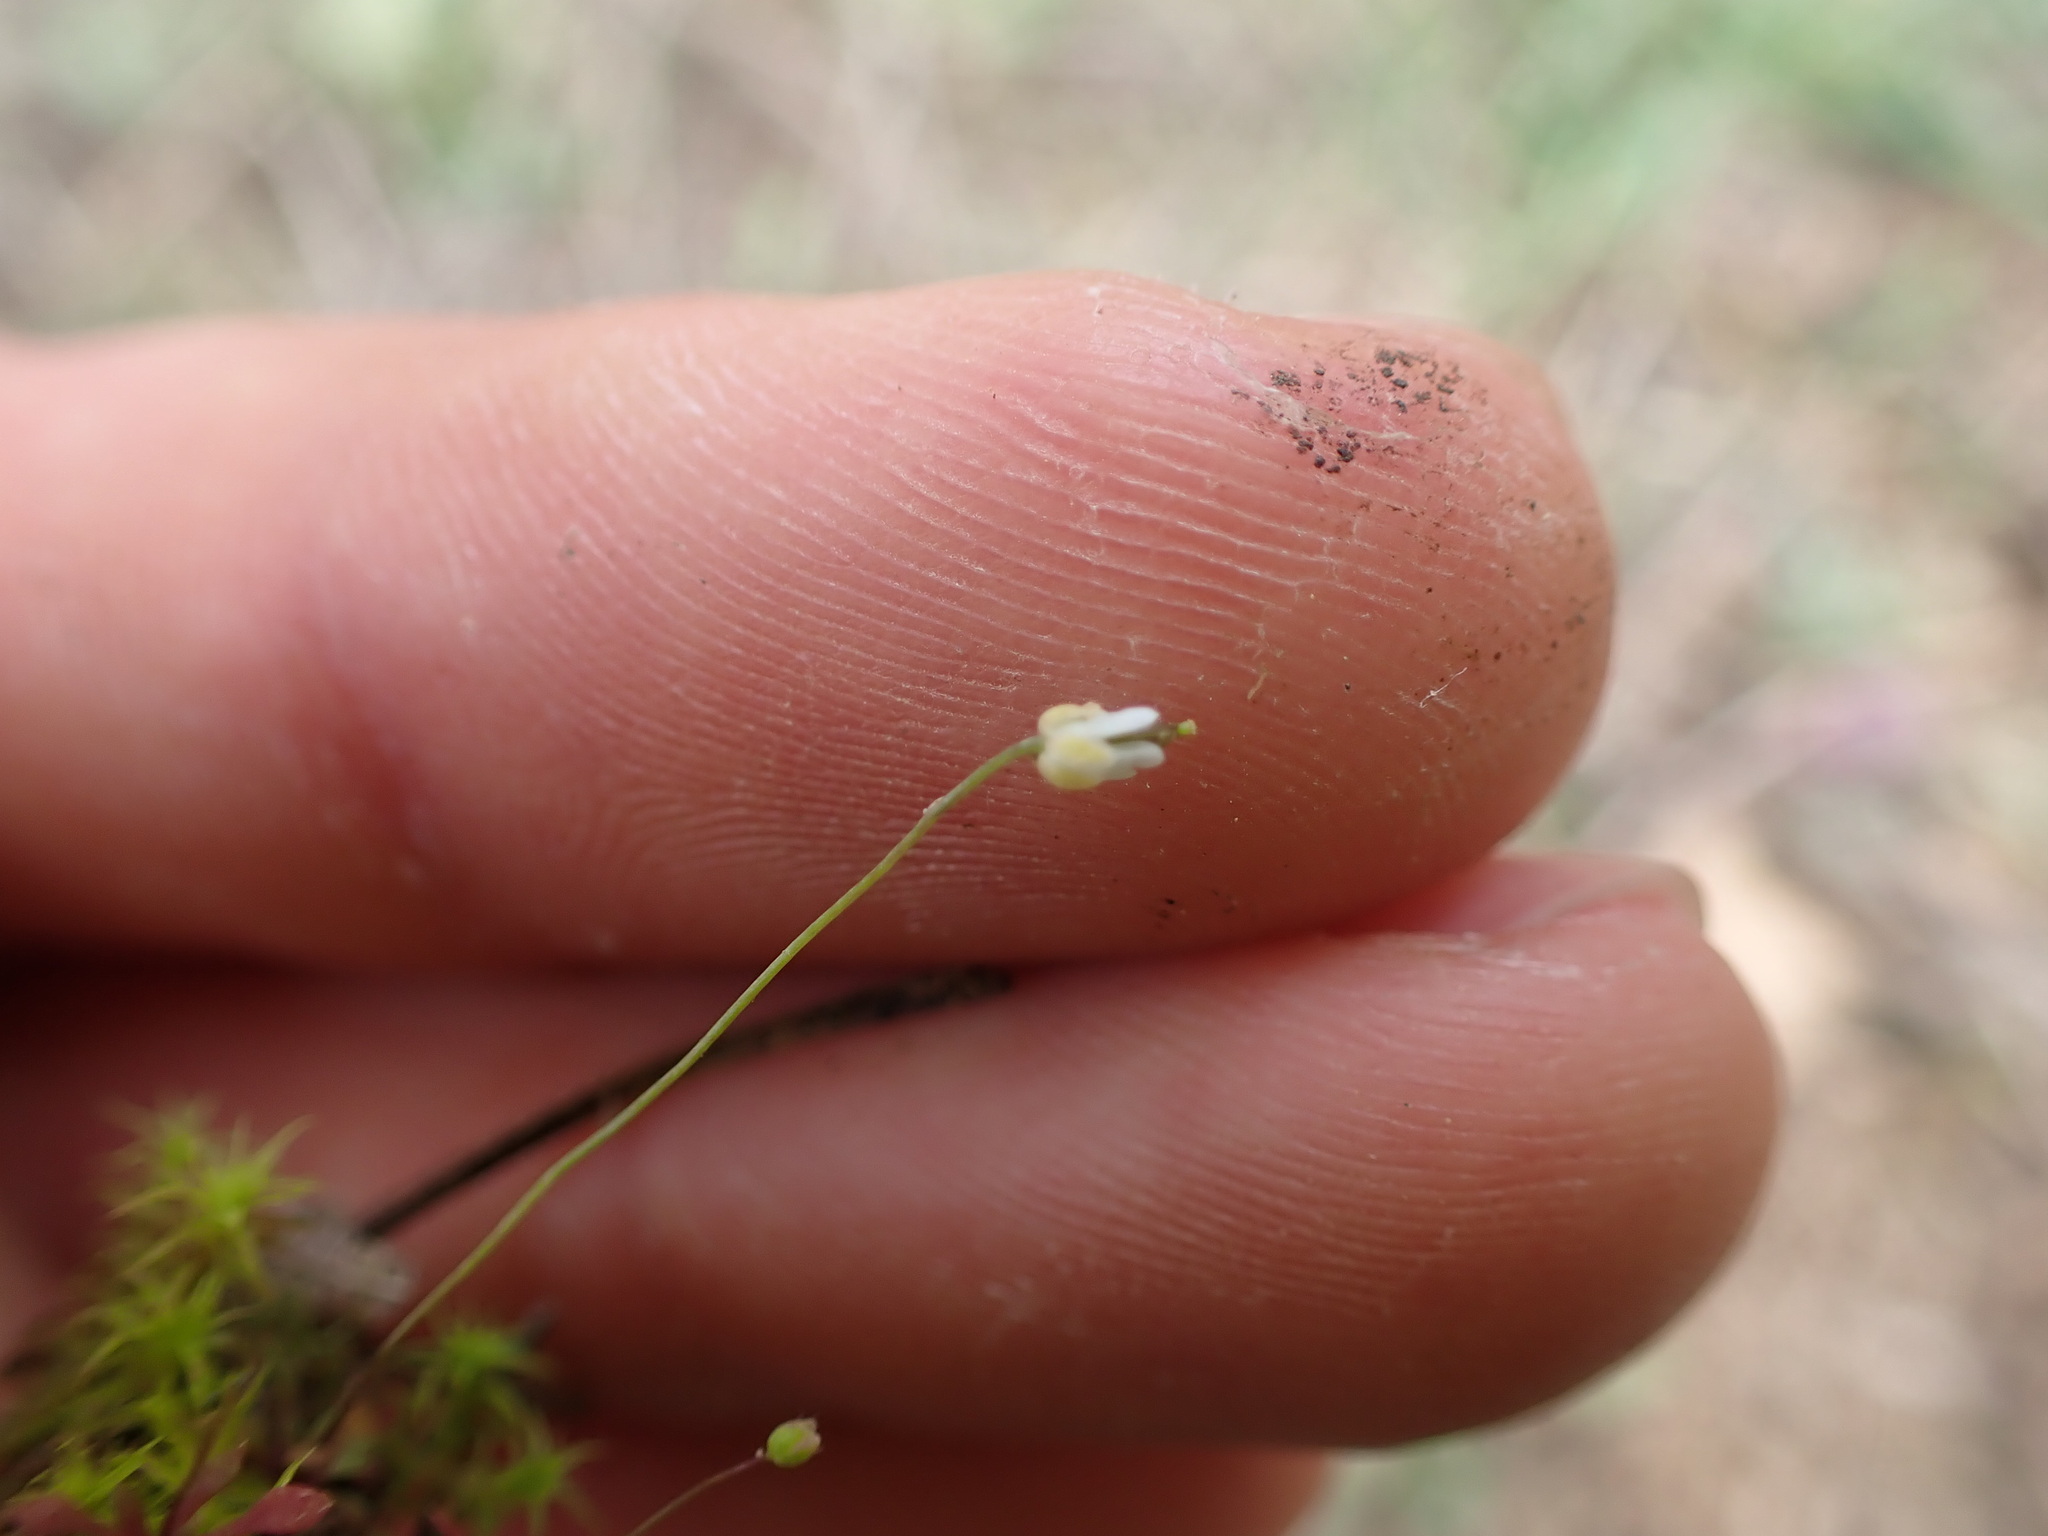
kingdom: Plantae
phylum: Tracheophyta
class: Magnoliopsida
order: Brassicales
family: Brassicaceae
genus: Draba
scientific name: Draba verna
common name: Spring draba
